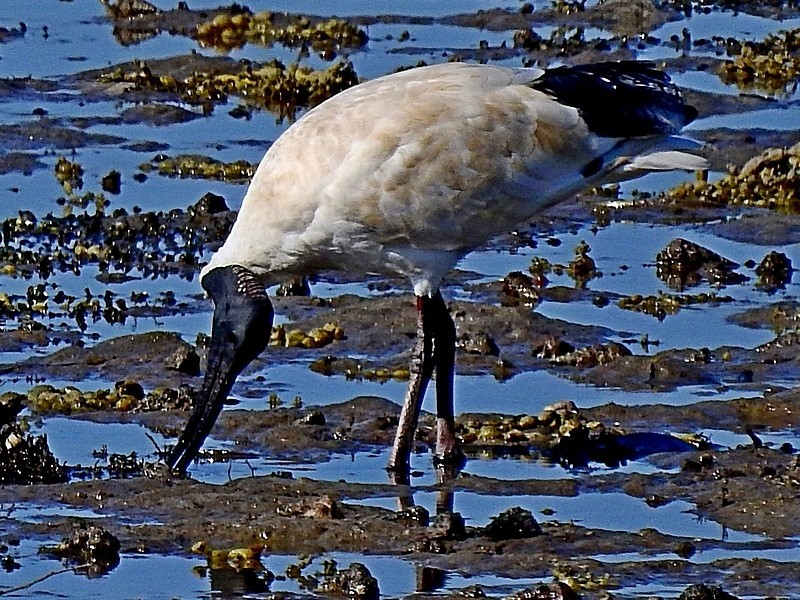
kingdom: Animalia
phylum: Chordata
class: Aves
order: Pelecaniformes
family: Threskiornithidae
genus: Threskiornis
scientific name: Threskiornis molucca
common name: Australian white ibis
